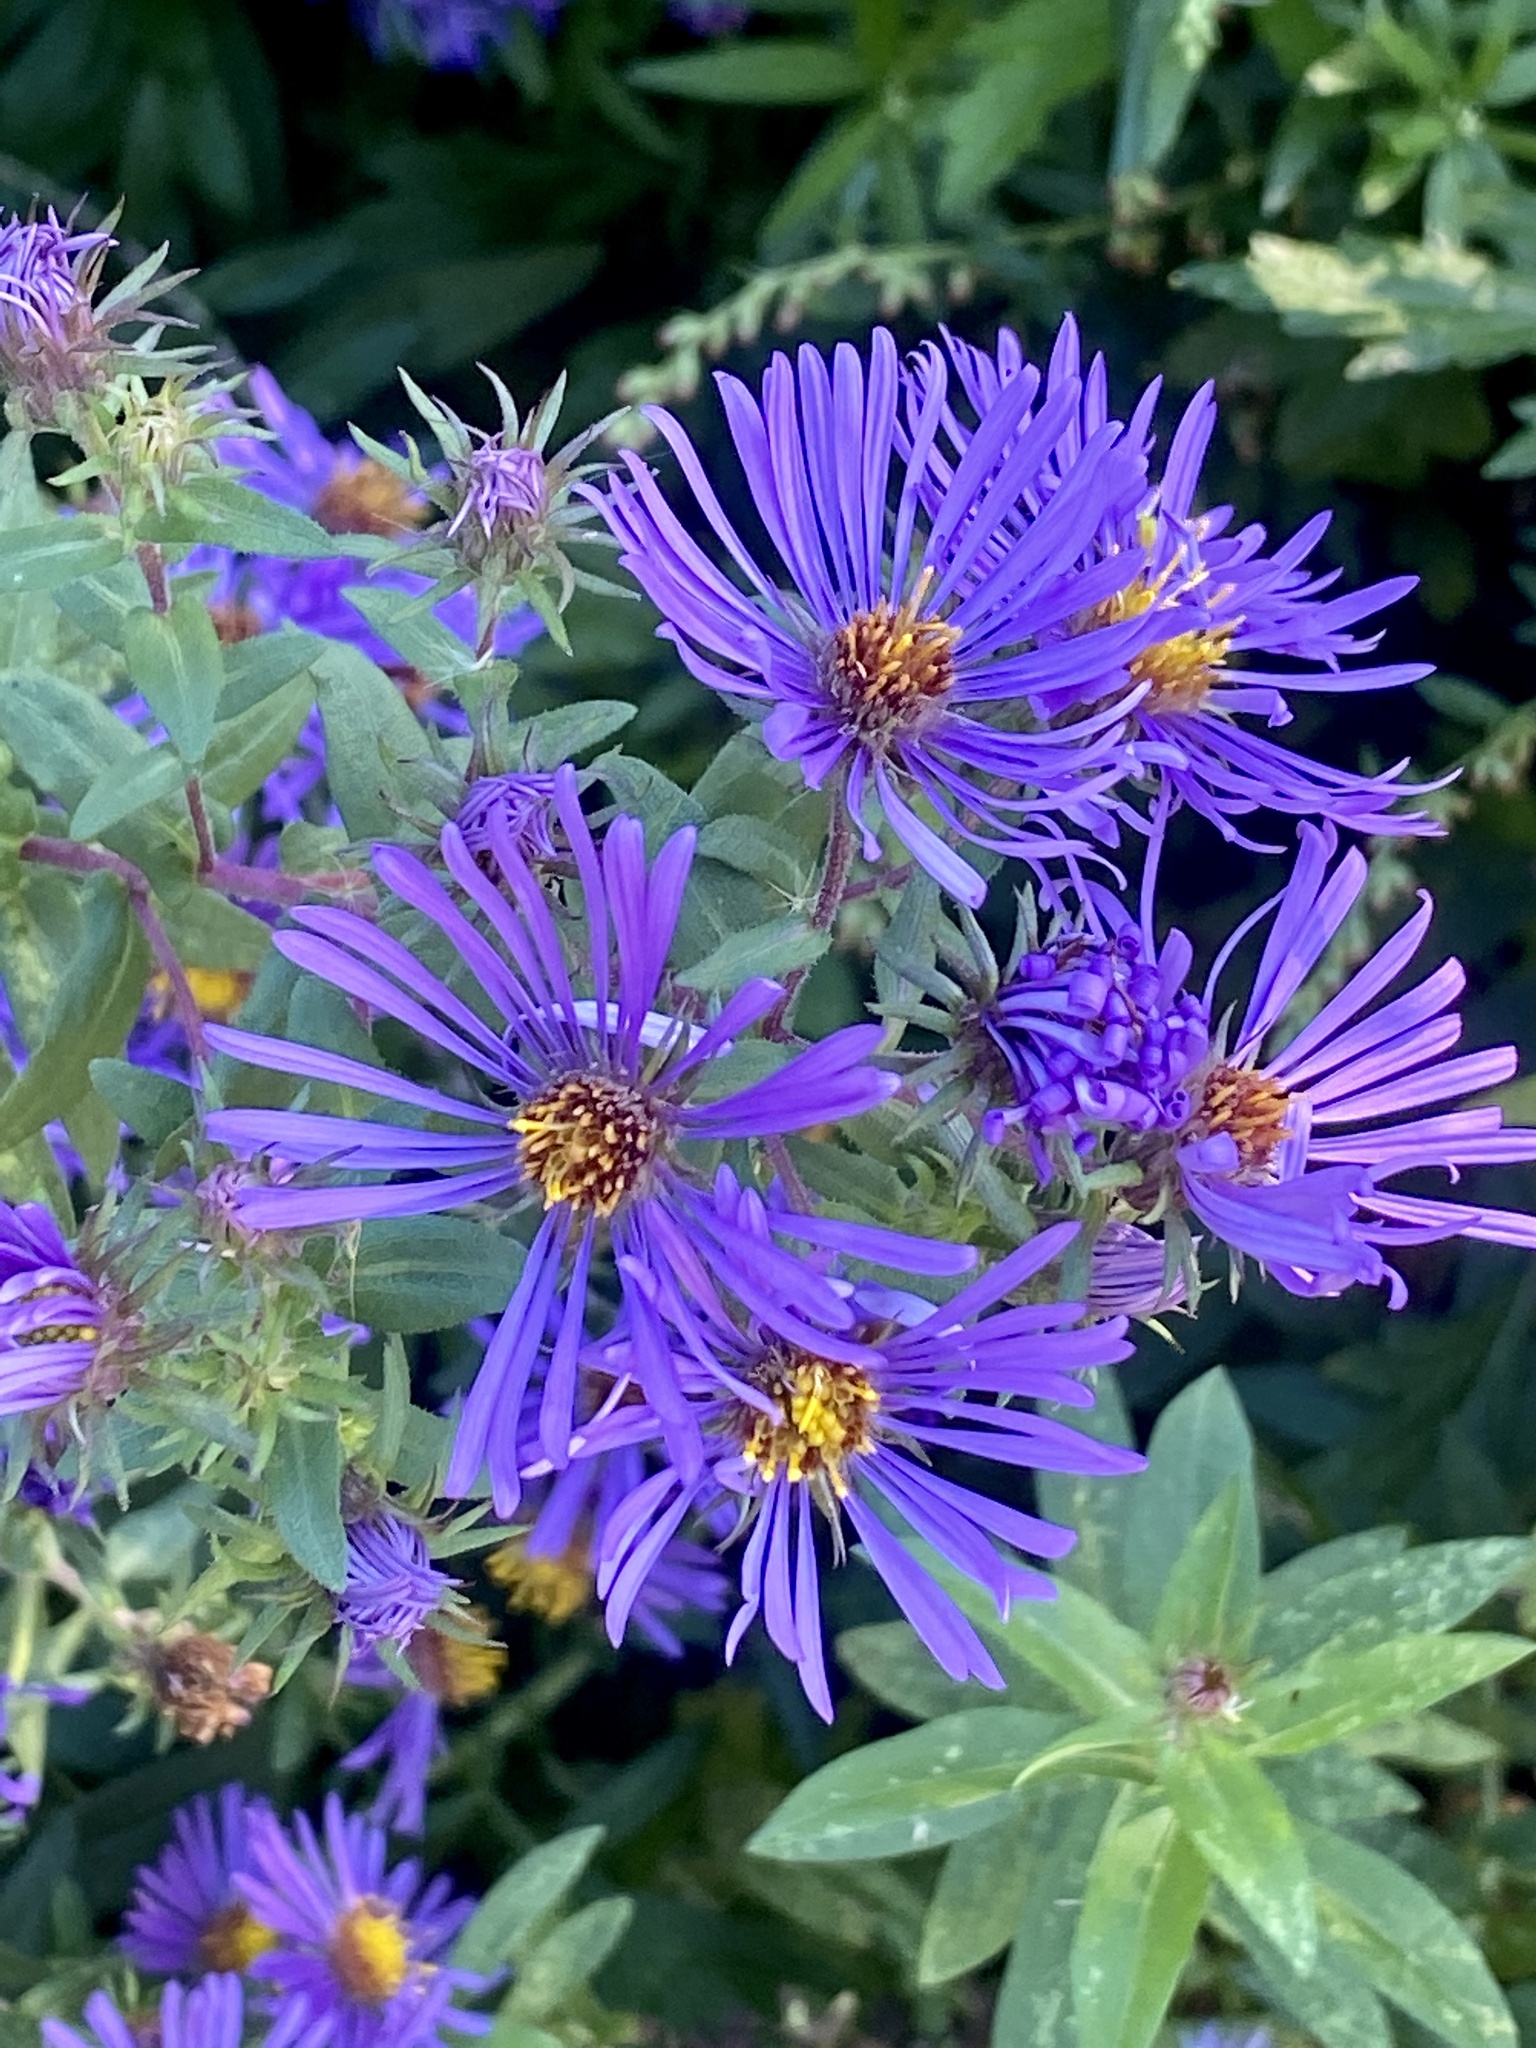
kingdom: Plantae
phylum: Tracheophyta
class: Magnoliopsida
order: Asterales
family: Asteraceae
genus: Symphyotrichum
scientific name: Symphyotrichum novae-angliae
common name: Michaelmas daisy
